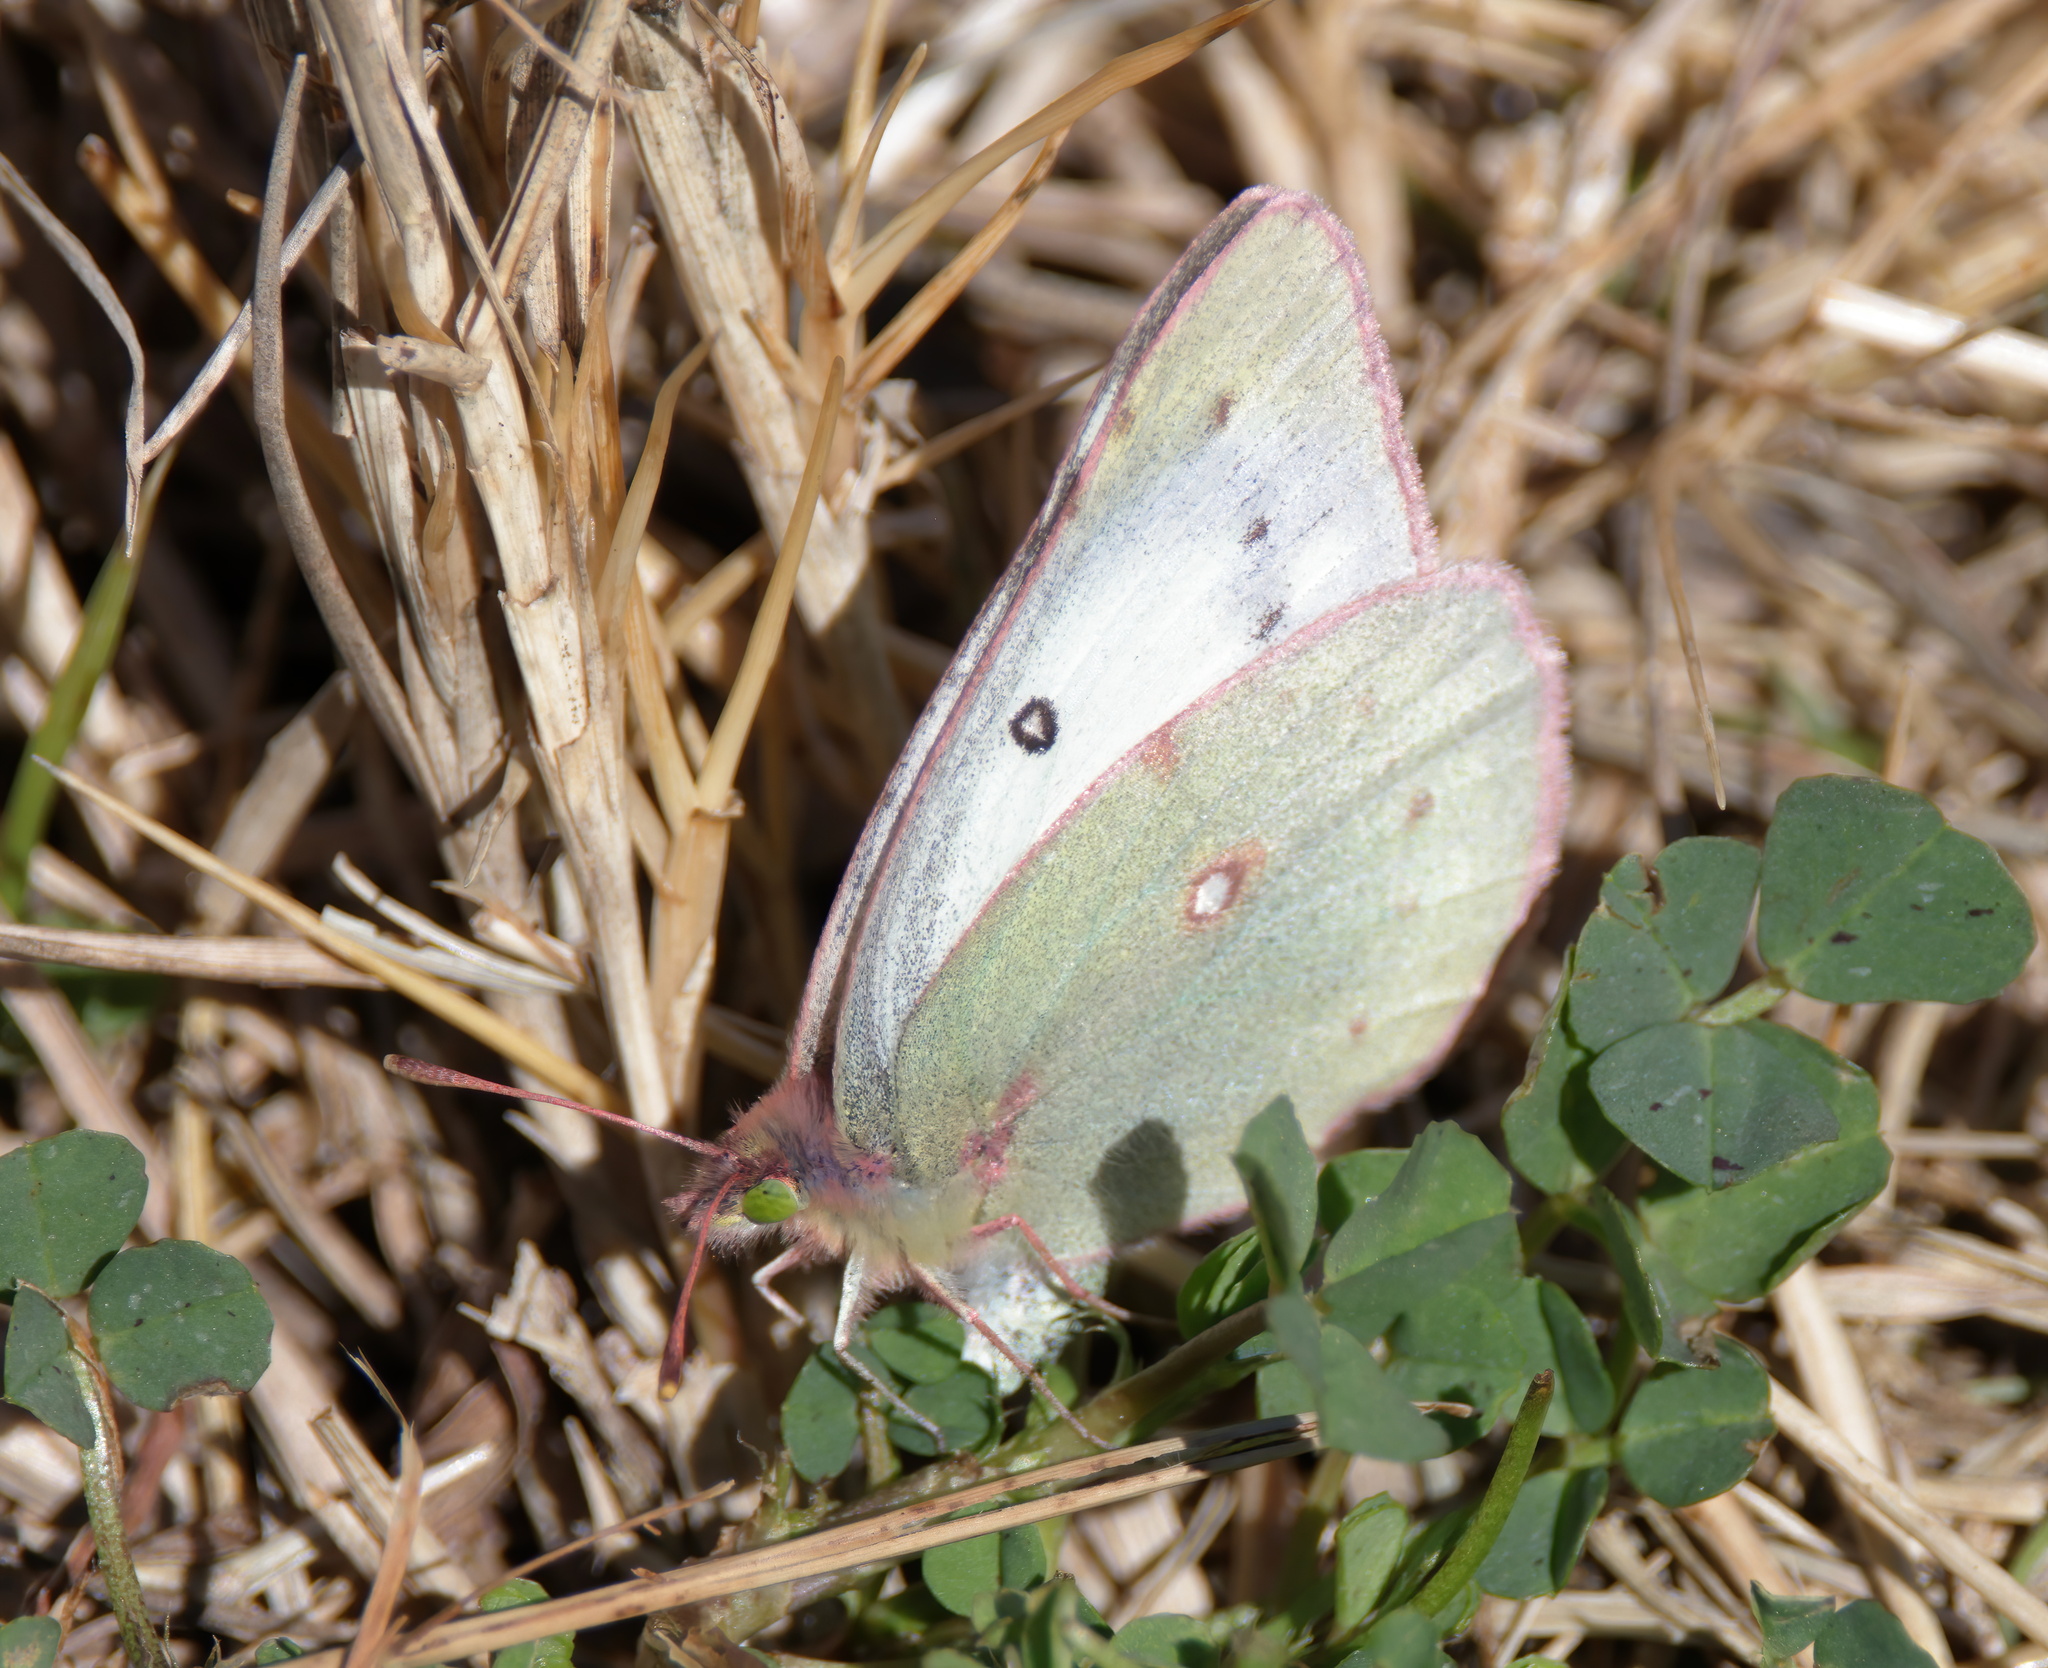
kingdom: Animalia
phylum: Arthropoda
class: Insecta
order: Lepidoptera
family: Pieridae
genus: Colias
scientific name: Colias eurytheme
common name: Alfalfa butterfly
